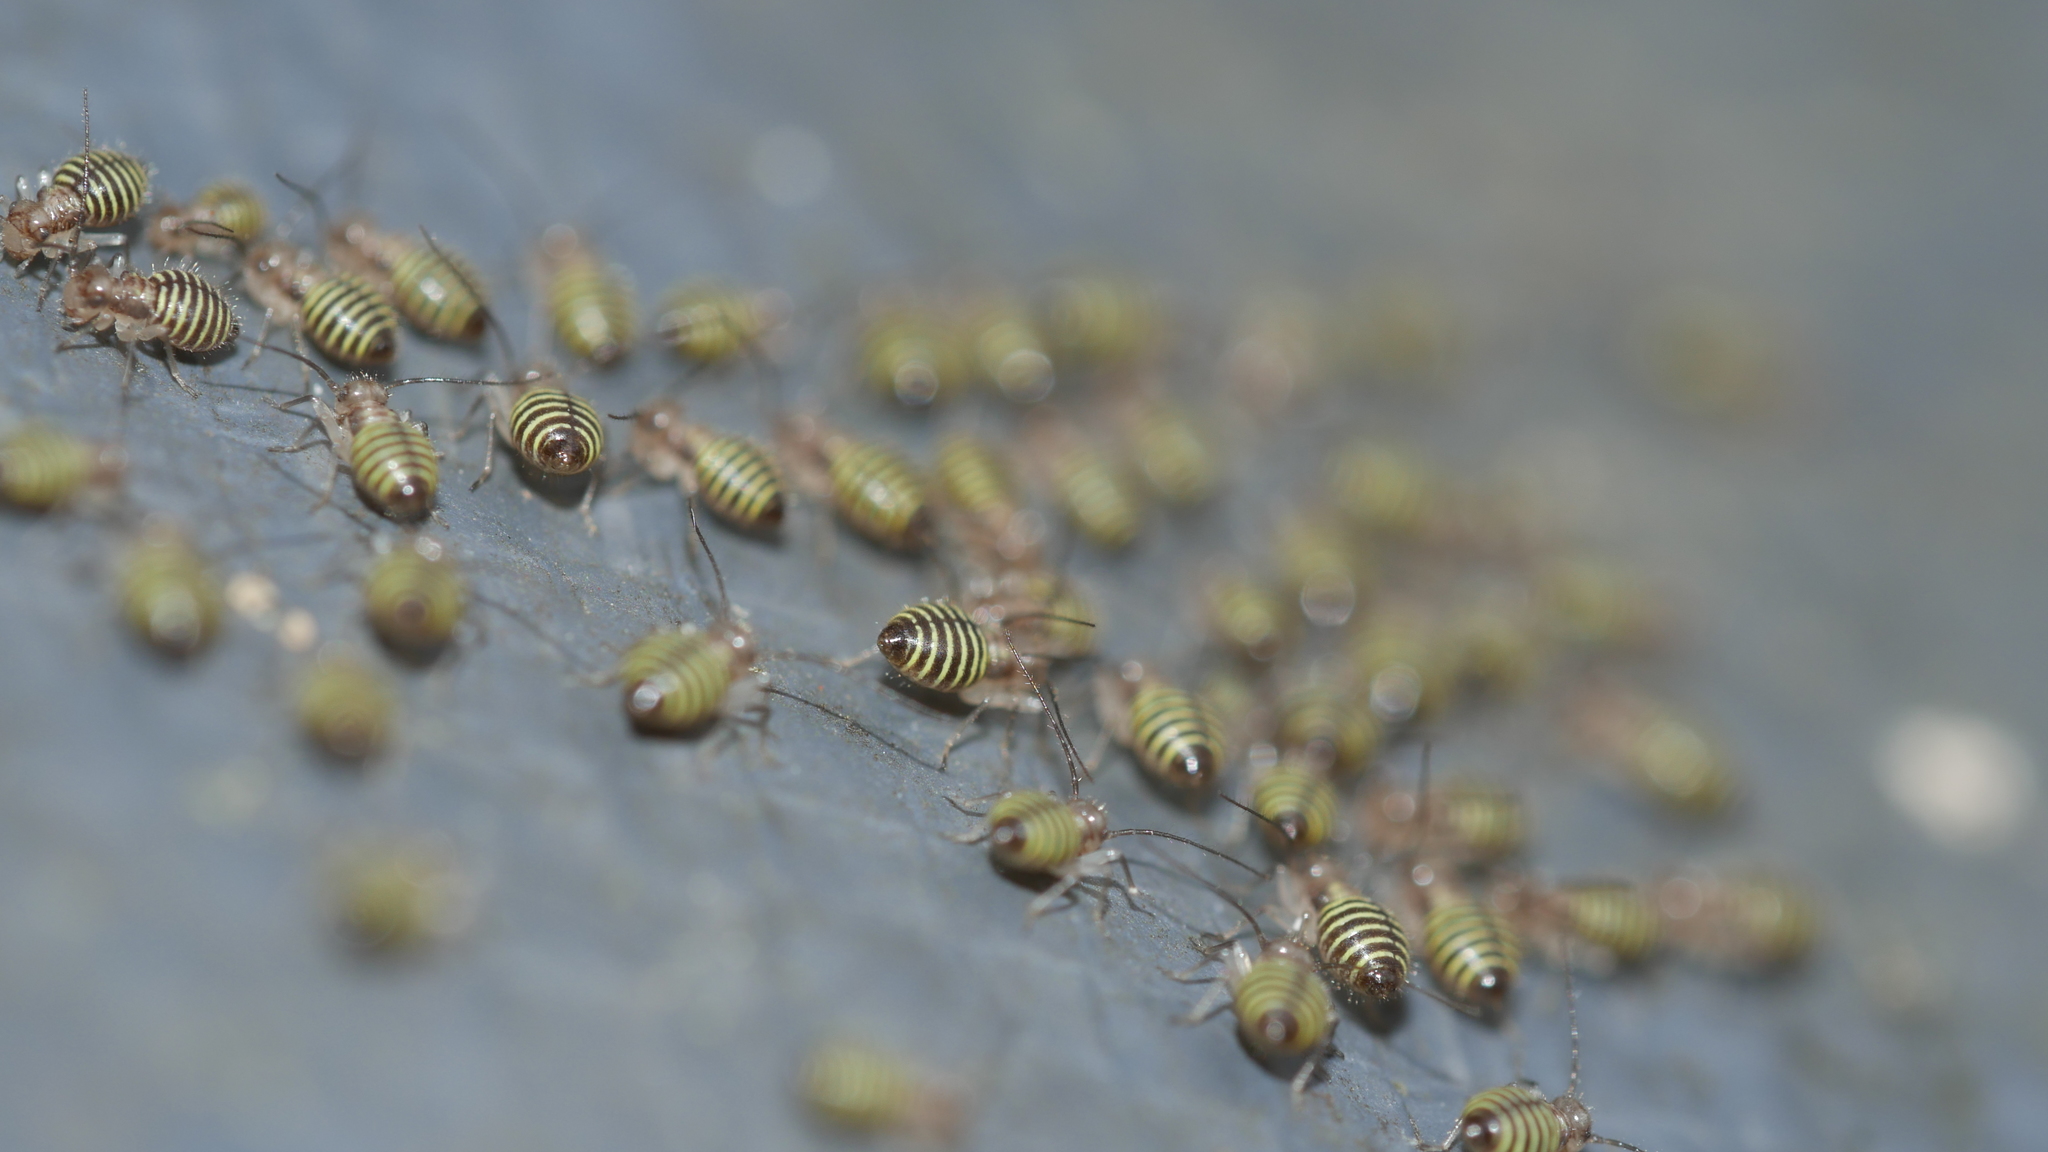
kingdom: Animalia
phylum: Arthropoda
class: Insecta
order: Psocodea
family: Psocidae
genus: Cerastipsocus
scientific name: Cerastipsocus venosus
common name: Tree cattle
